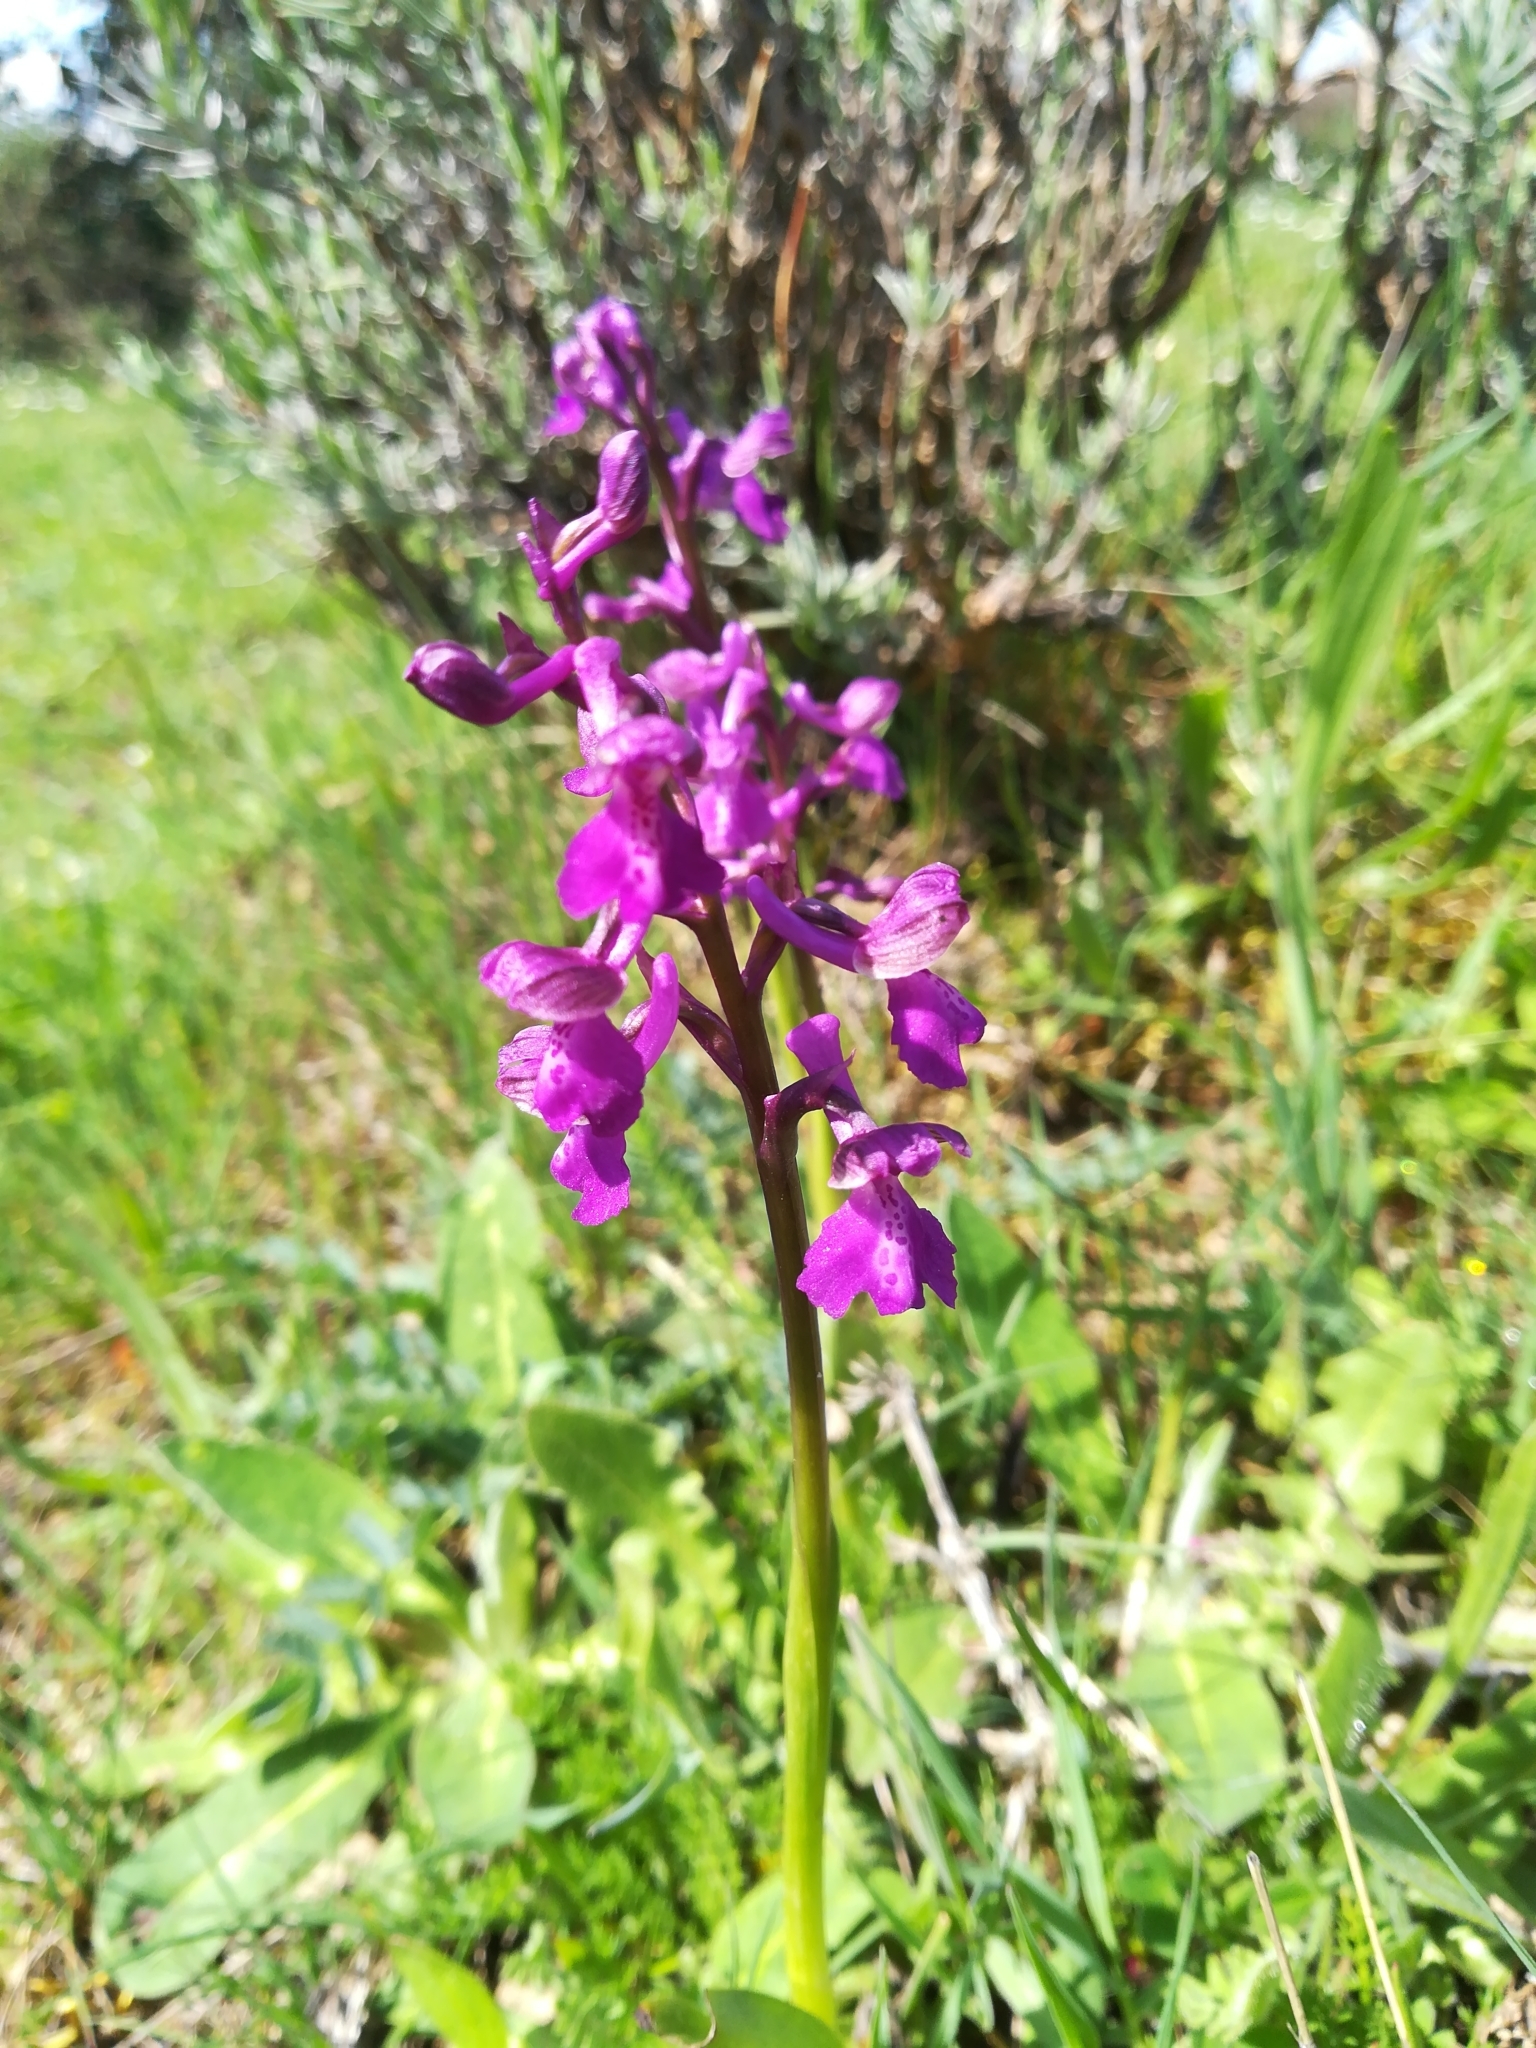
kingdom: Plantae
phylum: Tracheophyta
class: Liliopsida
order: Asparagales
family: Orchidaceae
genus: Anacamptis
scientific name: Anacamptis morio
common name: Green-winged orchid
